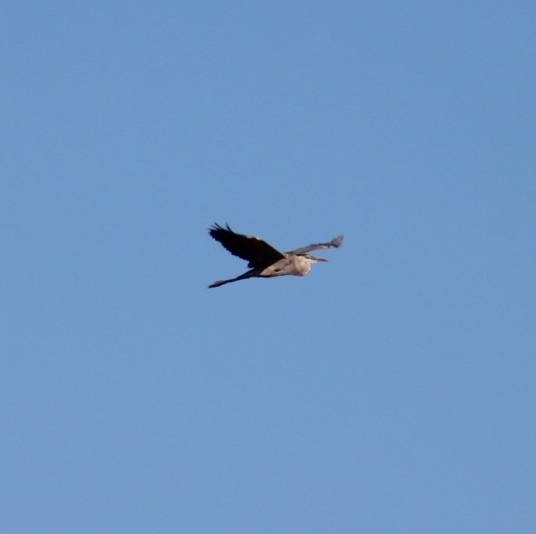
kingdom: Animalia
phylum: Chordata
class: Aves
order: Pelecaniformes
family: Ardeidae
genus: Ardea
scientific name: Ardea herodias
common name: Great blue heron
